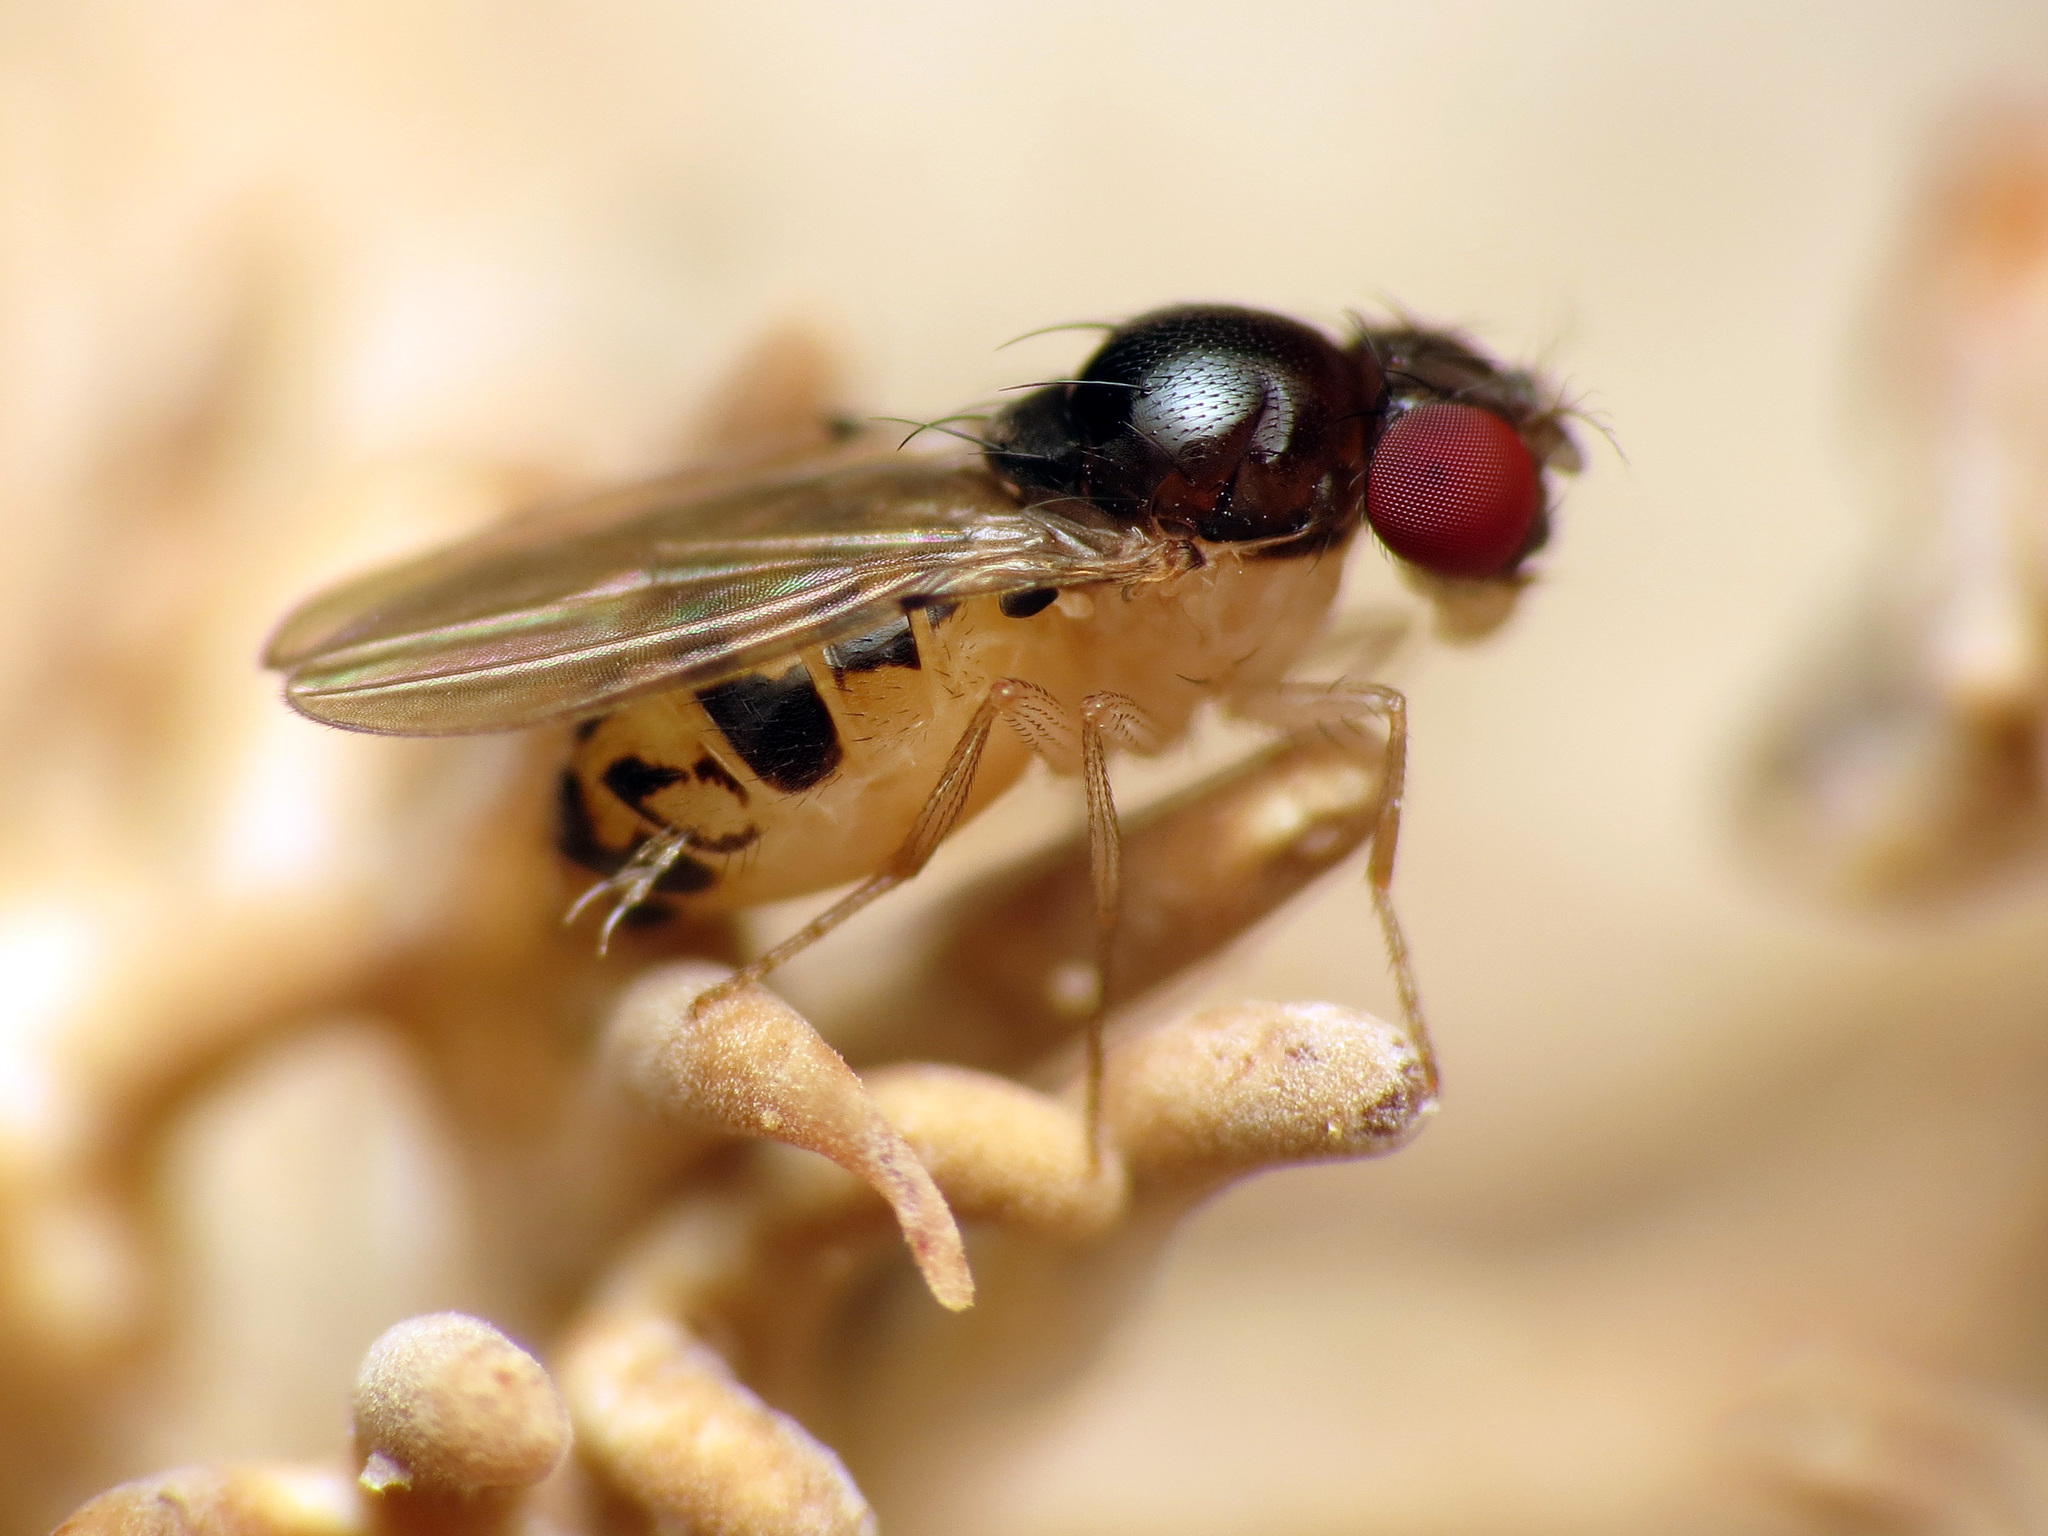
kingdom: Animalia
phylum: Arthropoda
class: Insecta
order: Diptera
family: Drosophilidae
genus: Mycodrosophila
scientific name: Mycodrosophila claytonae
